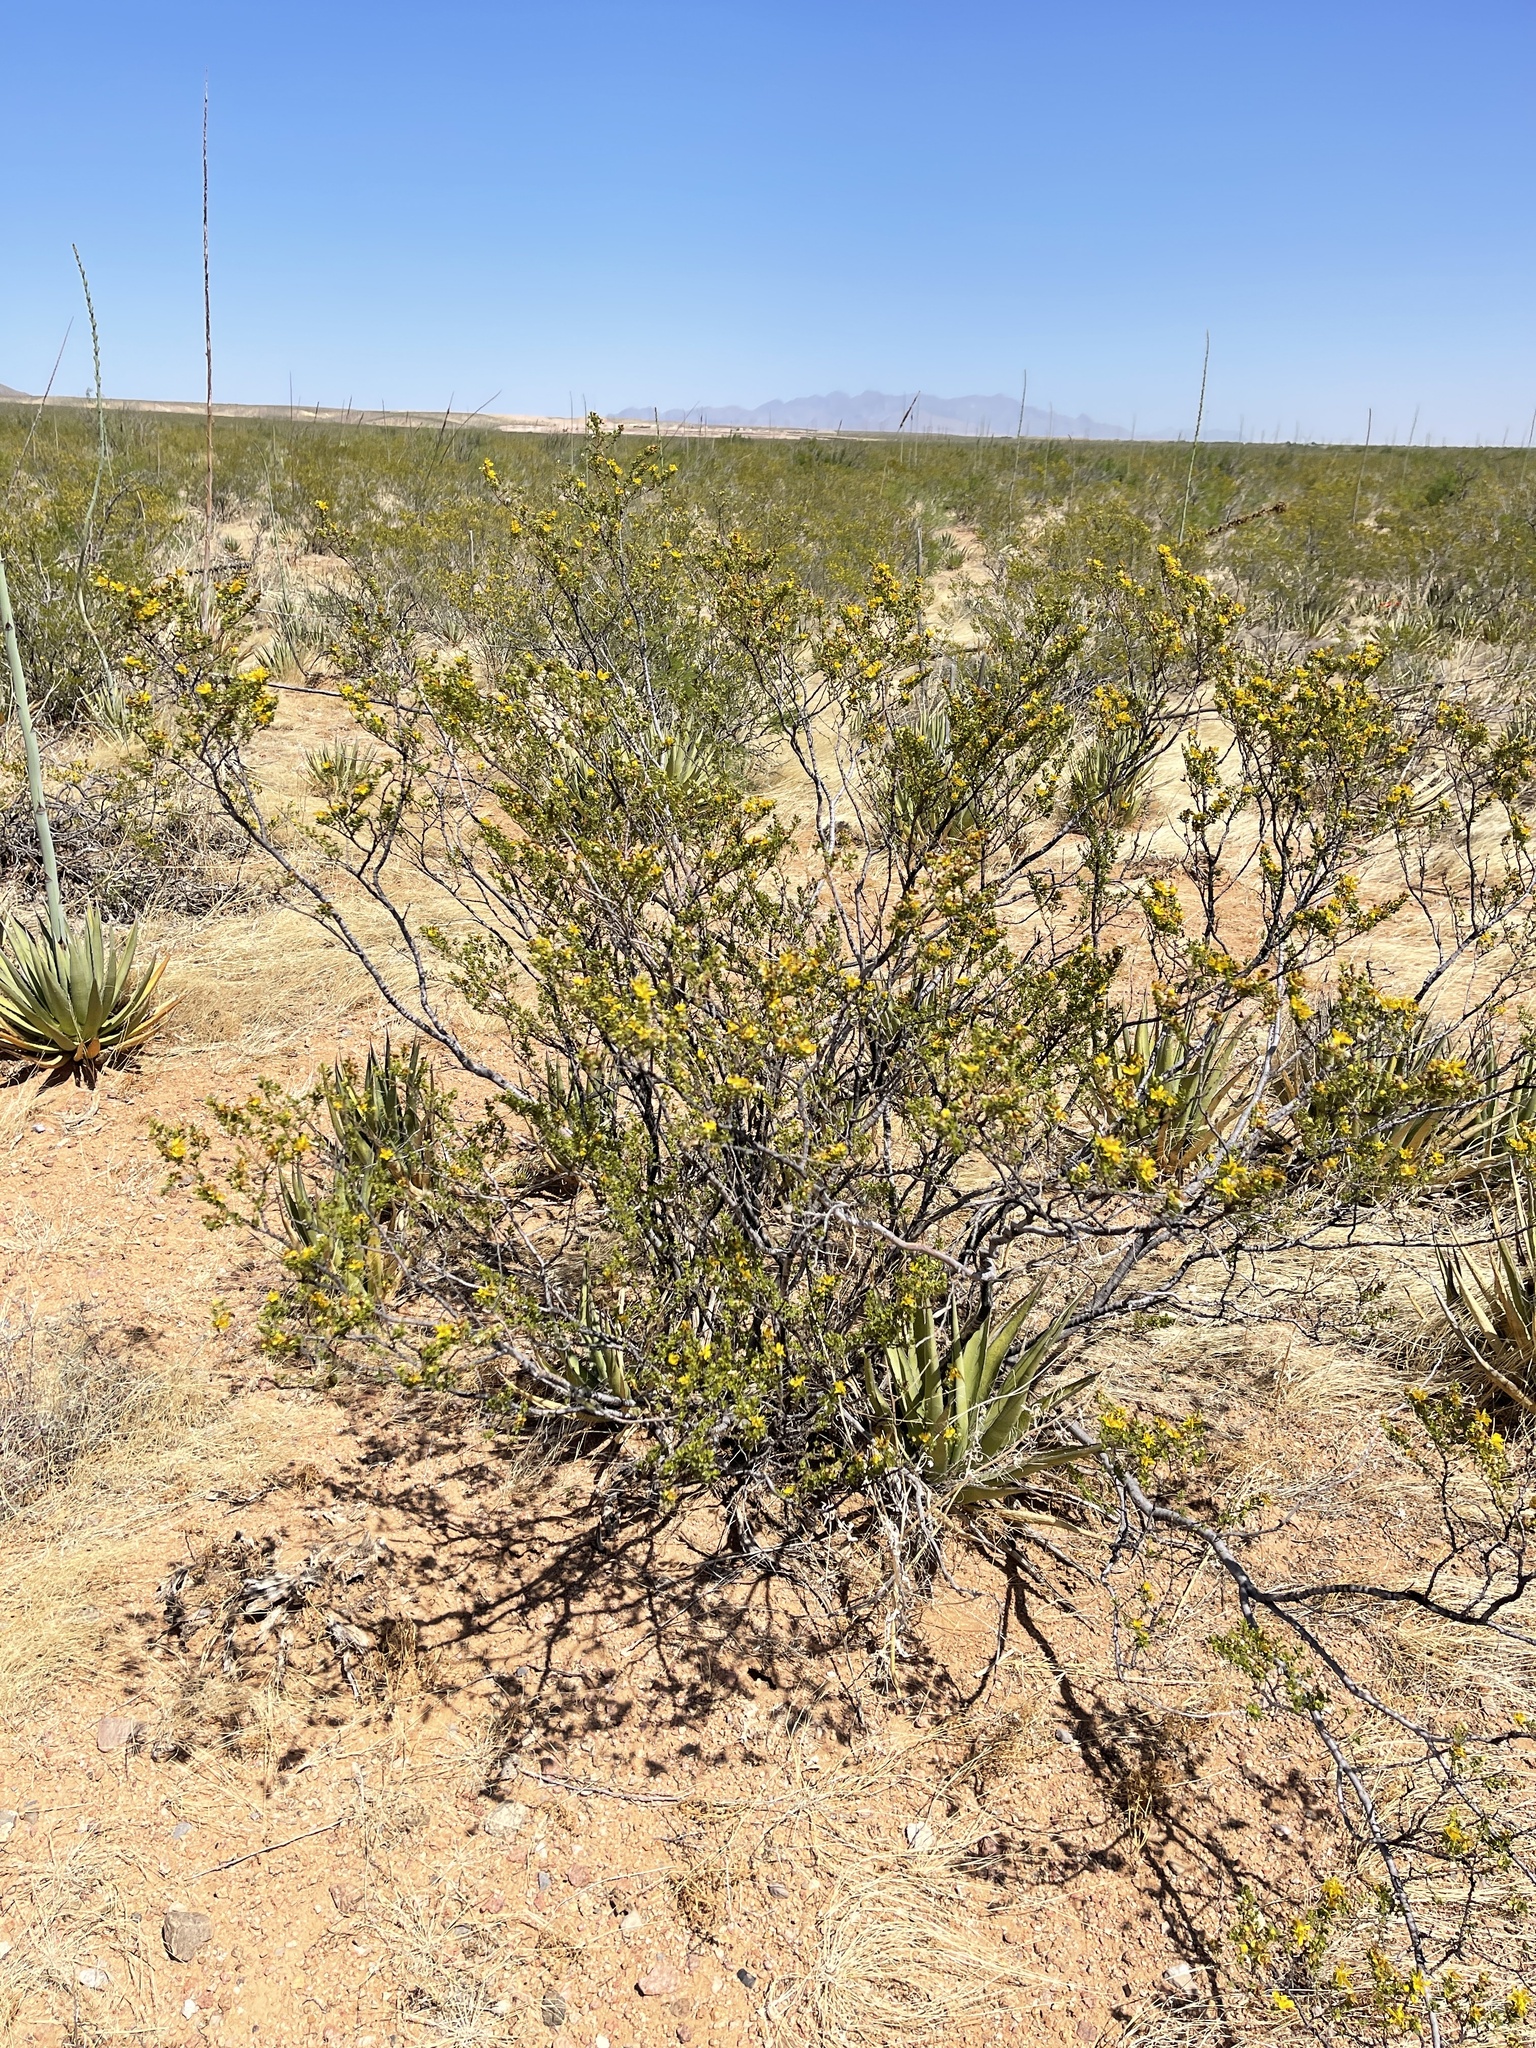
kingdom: Plantae
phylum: Tracheophyta
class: Magnoliopsida
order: Zygophyllales
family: Zygophyllaceae
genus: Larrea
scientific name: Larrea tridentata
